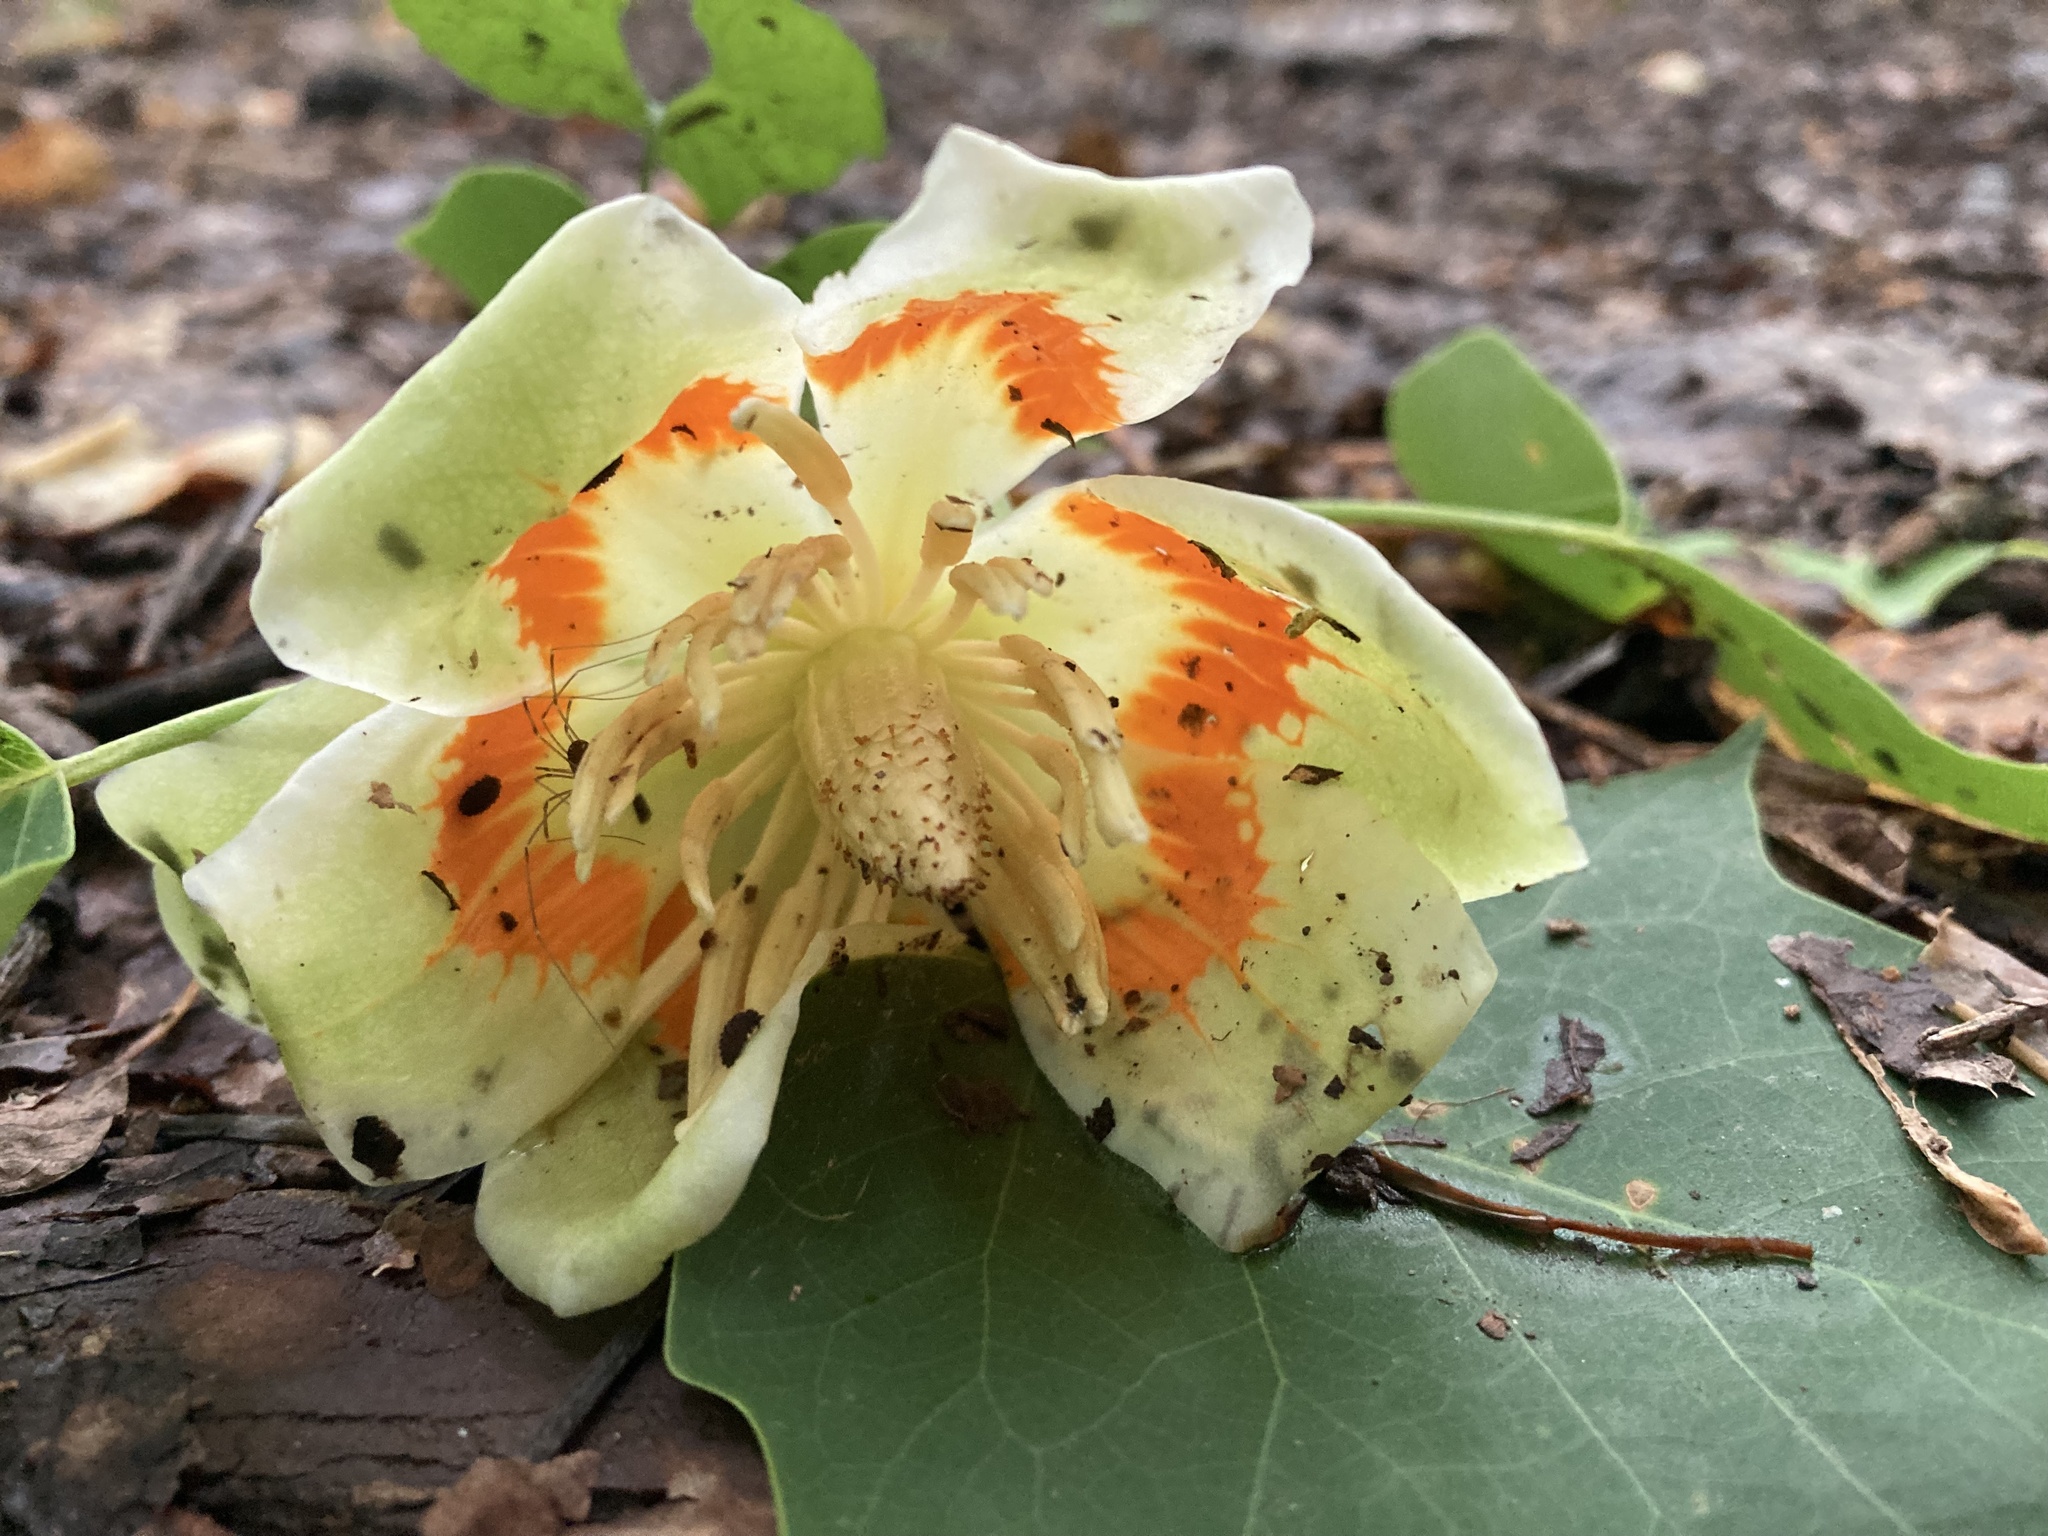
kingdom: Plantae
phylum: Tracheophyta
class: Magnoliopsida
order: Magnoliales
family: Magnoliaceae
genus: Liriodendron
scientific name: Liriodendron tulipifera
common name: Tulip tree
